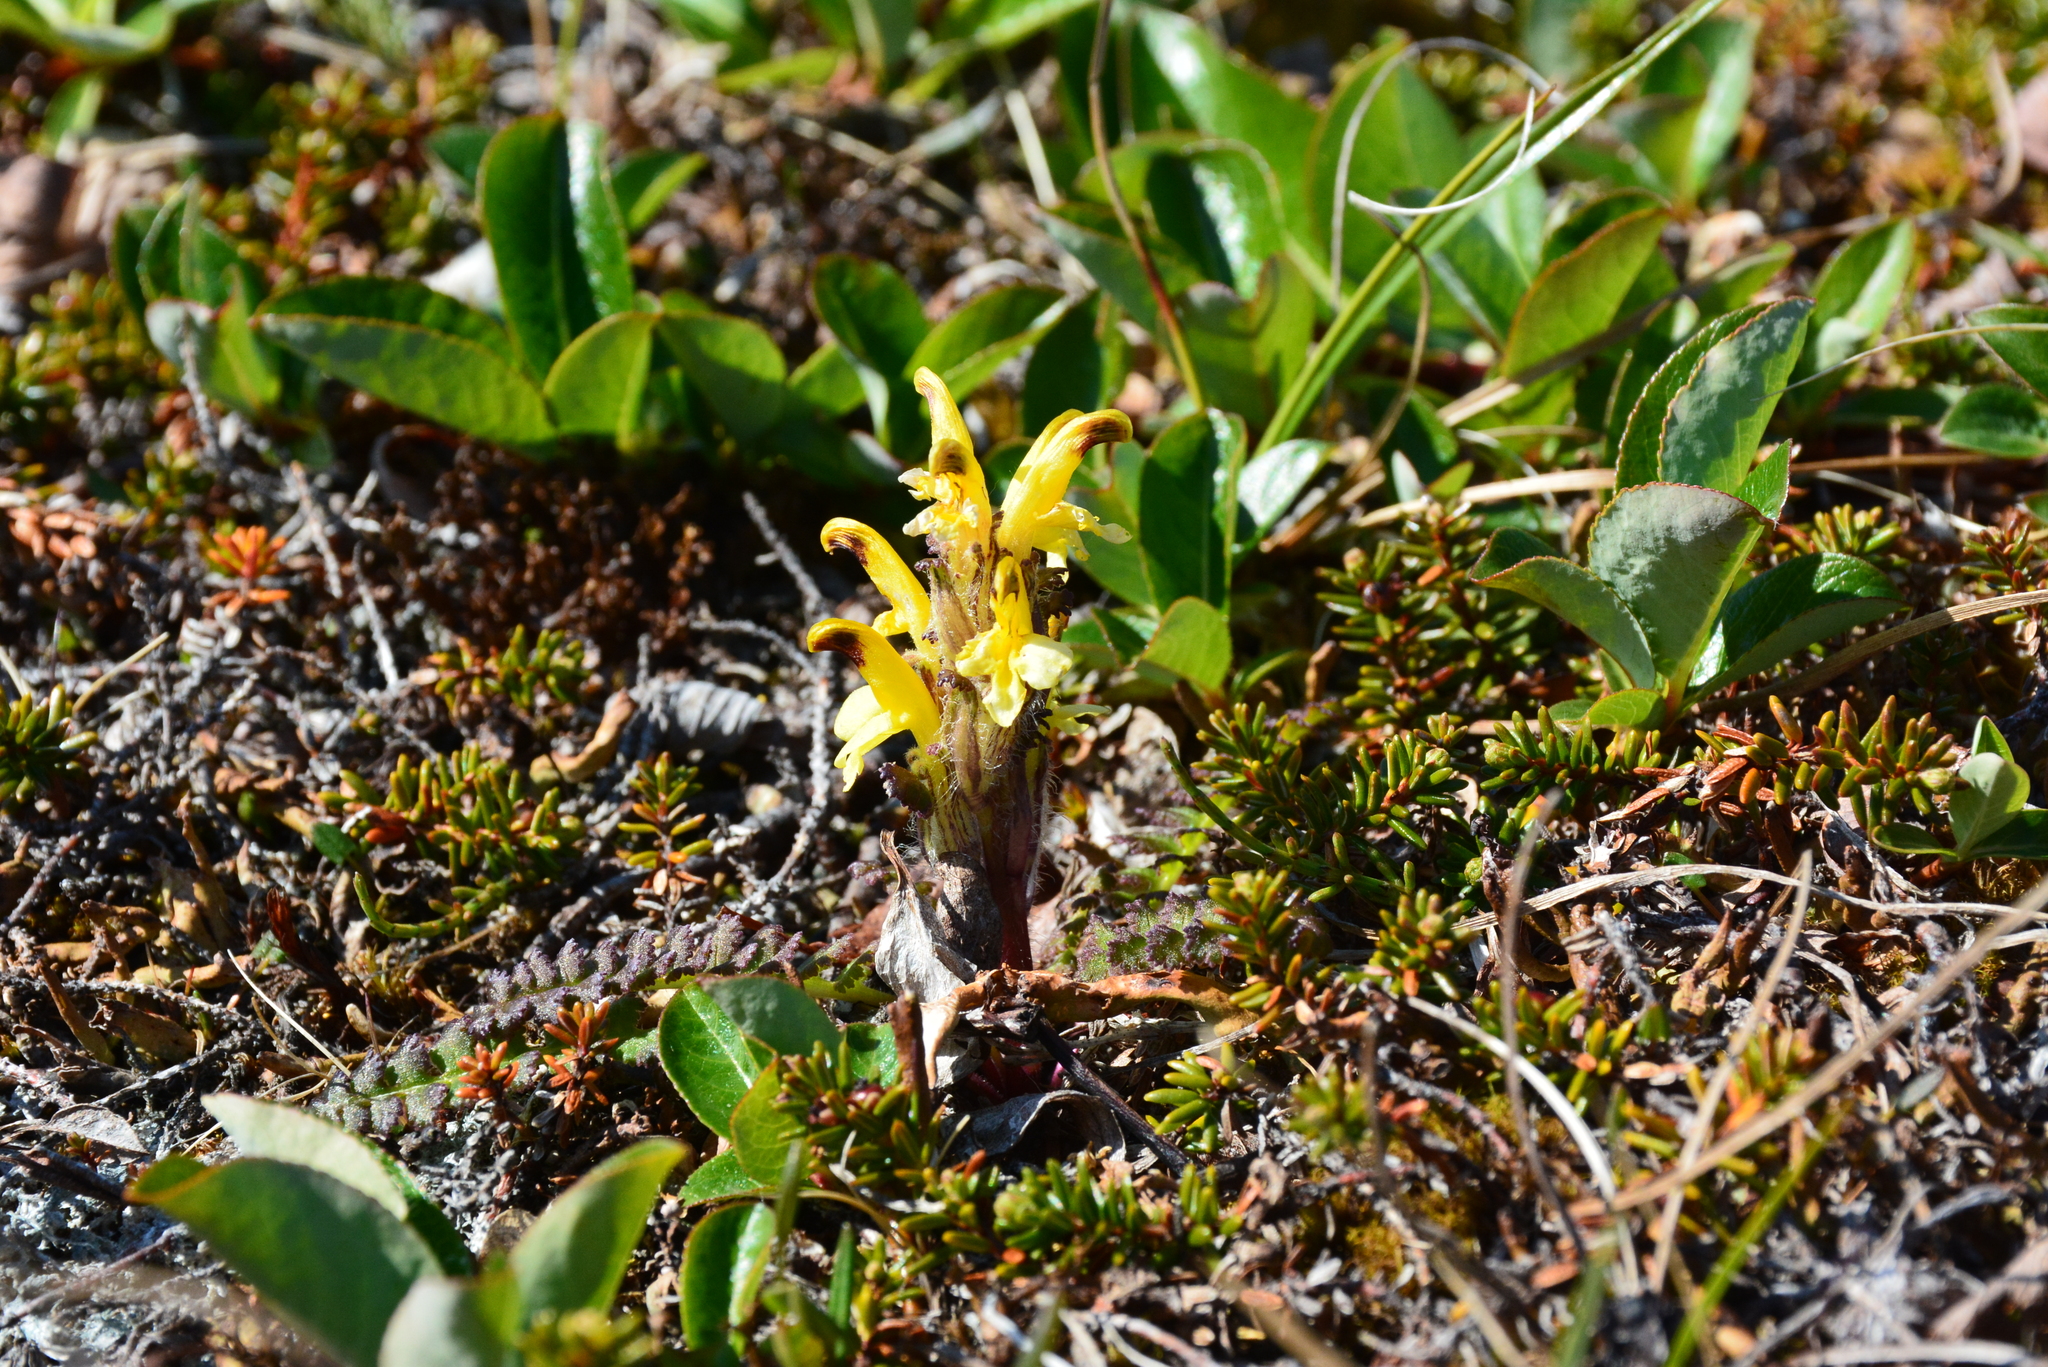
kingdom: Plantae
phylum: Tracheophyta
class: Magnoliopsida
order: Lamiales
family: Orobanchaceae
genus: Pedicularis
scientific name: Pedicularis oederi
